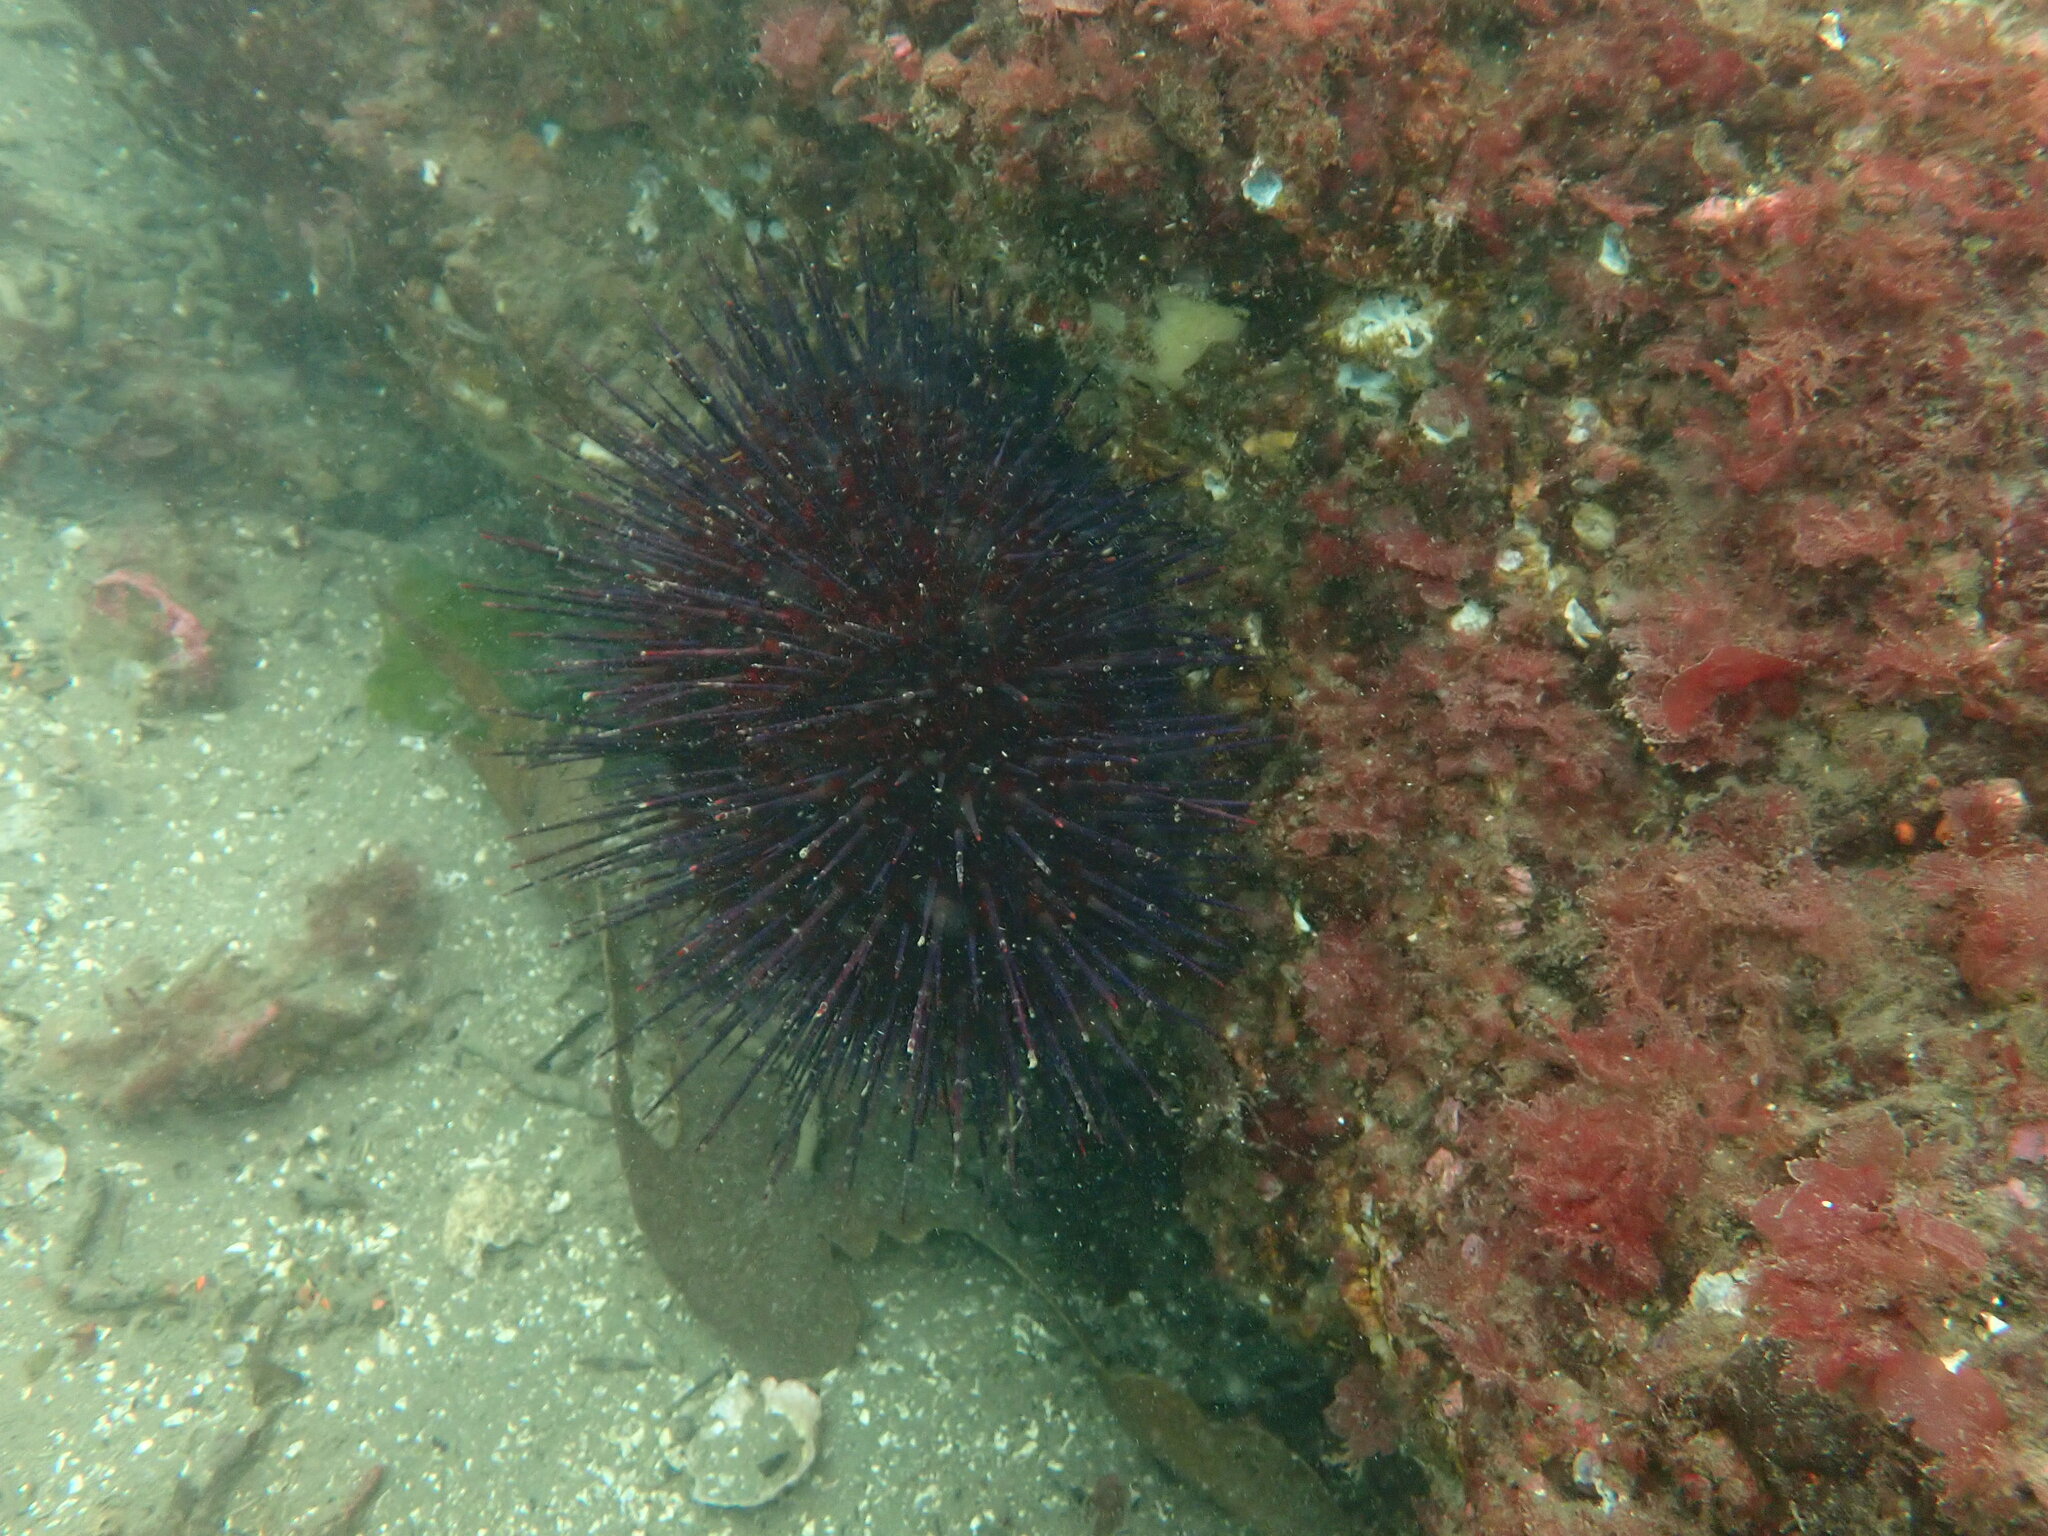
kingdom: Animalia
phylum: Echinodermata
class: Echinoidea
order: Camarodonta
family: Strongylocentrotidae
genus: Mesocentrotus
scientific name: Mesocentrotus franciscanus
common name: Red sea urchin
